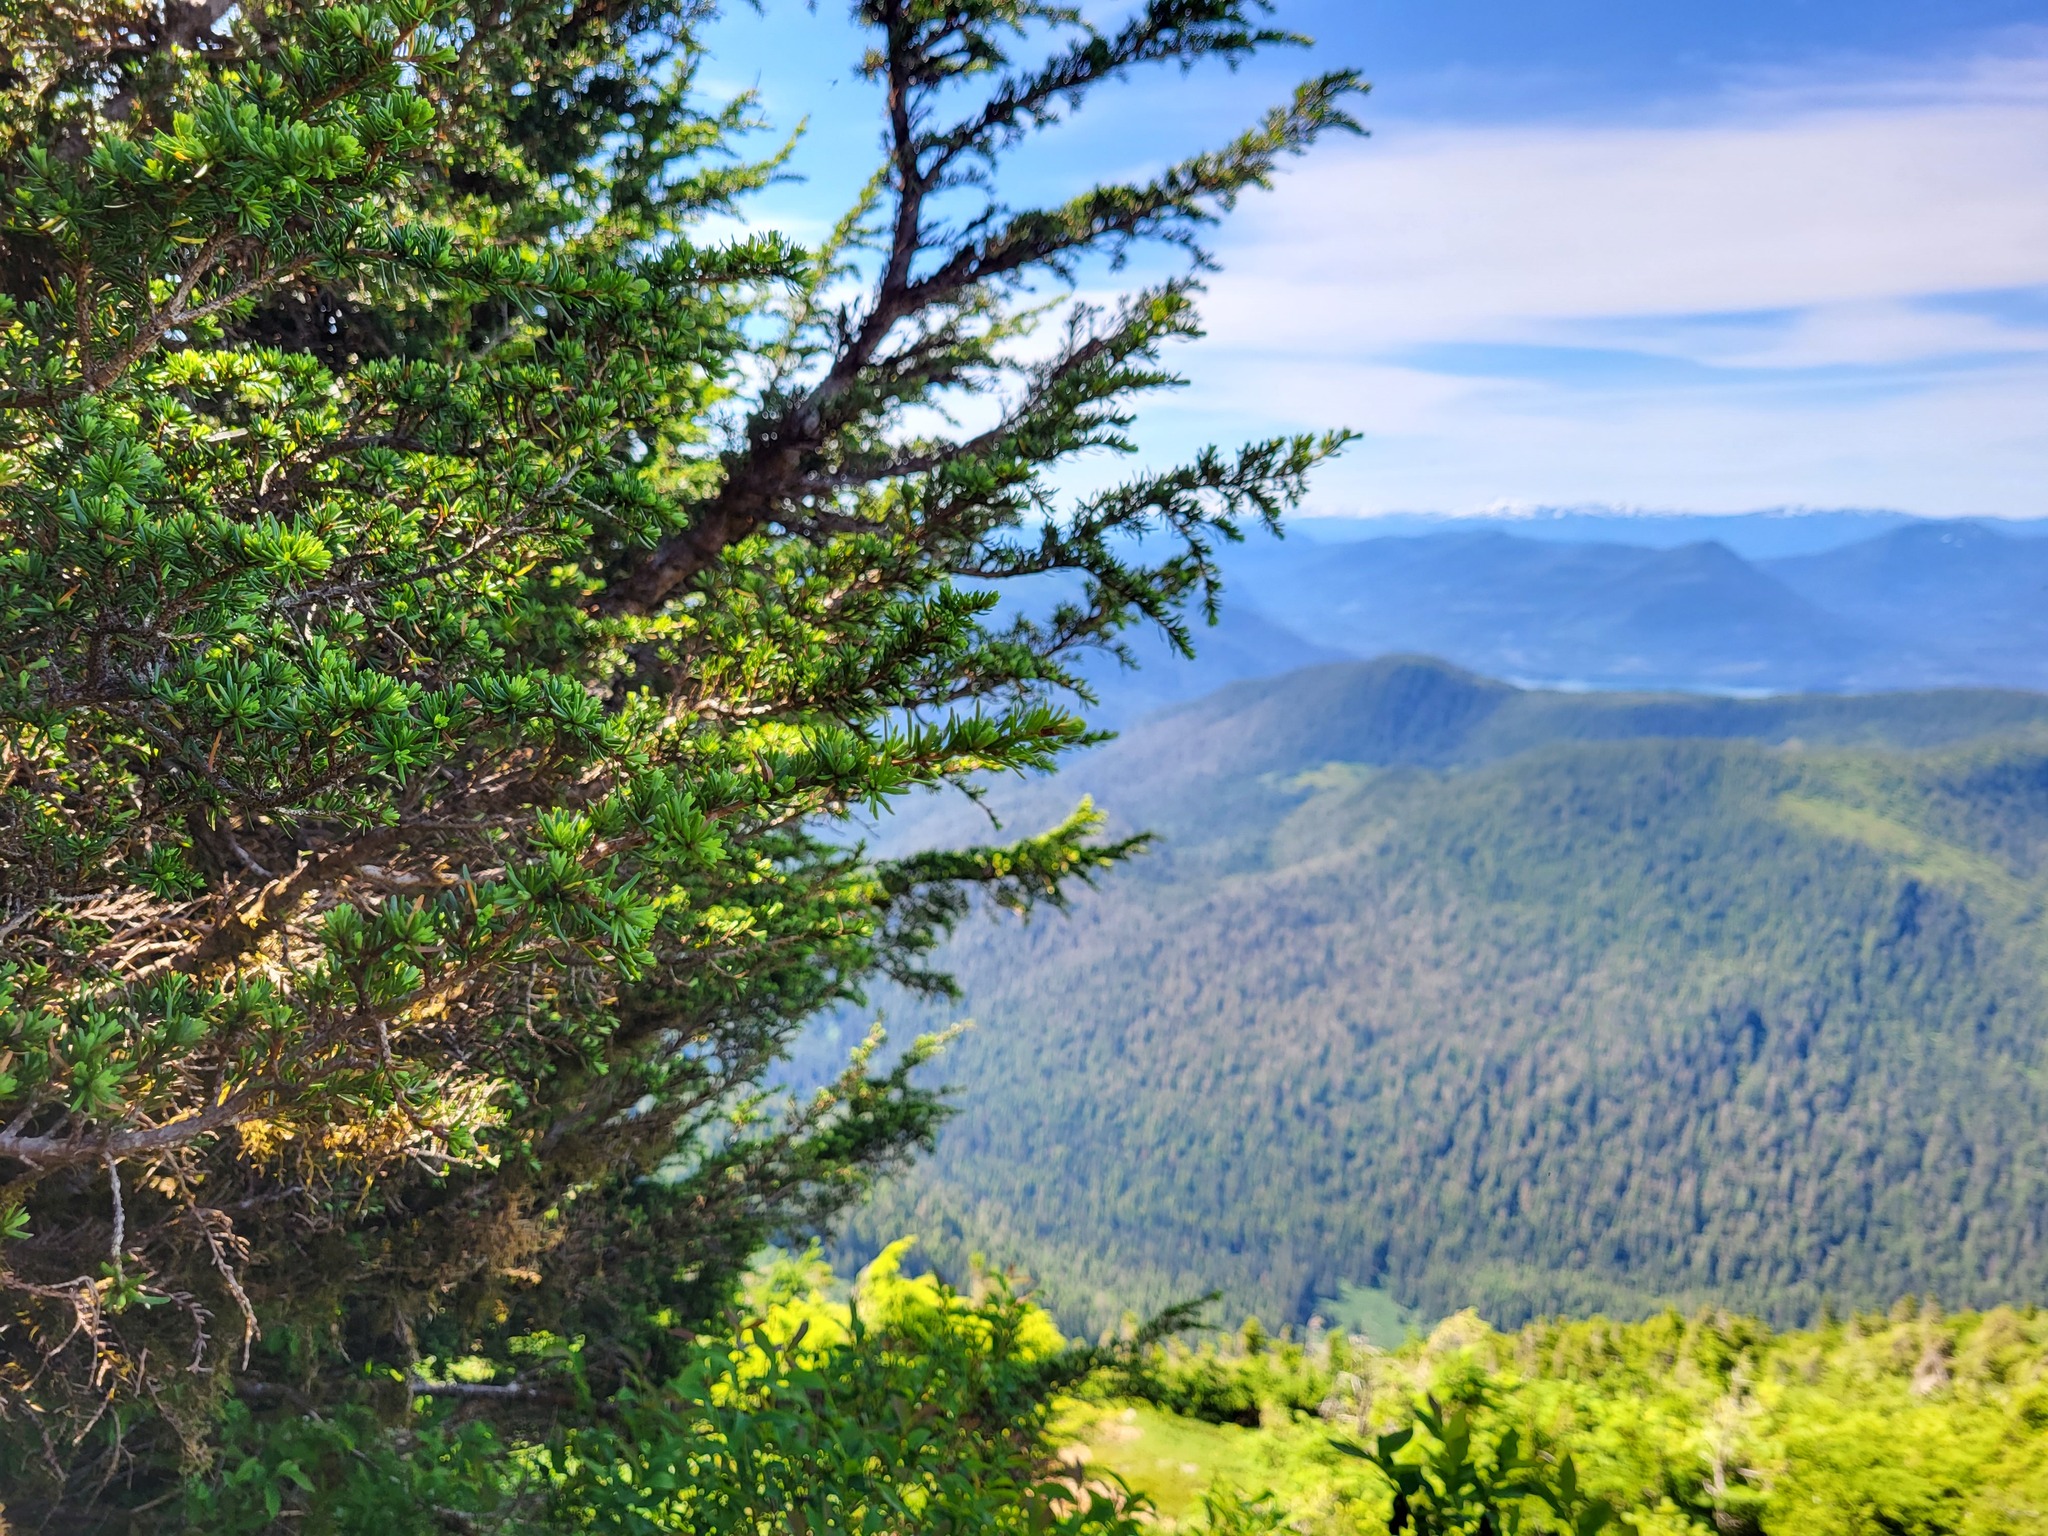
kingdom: Plantae
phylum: Tracheophyta
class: Pinopsida
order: Pinales
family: Pinaceae
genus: Tsuga
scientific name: Tsuga mertensiana
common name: Mountain hemlock
